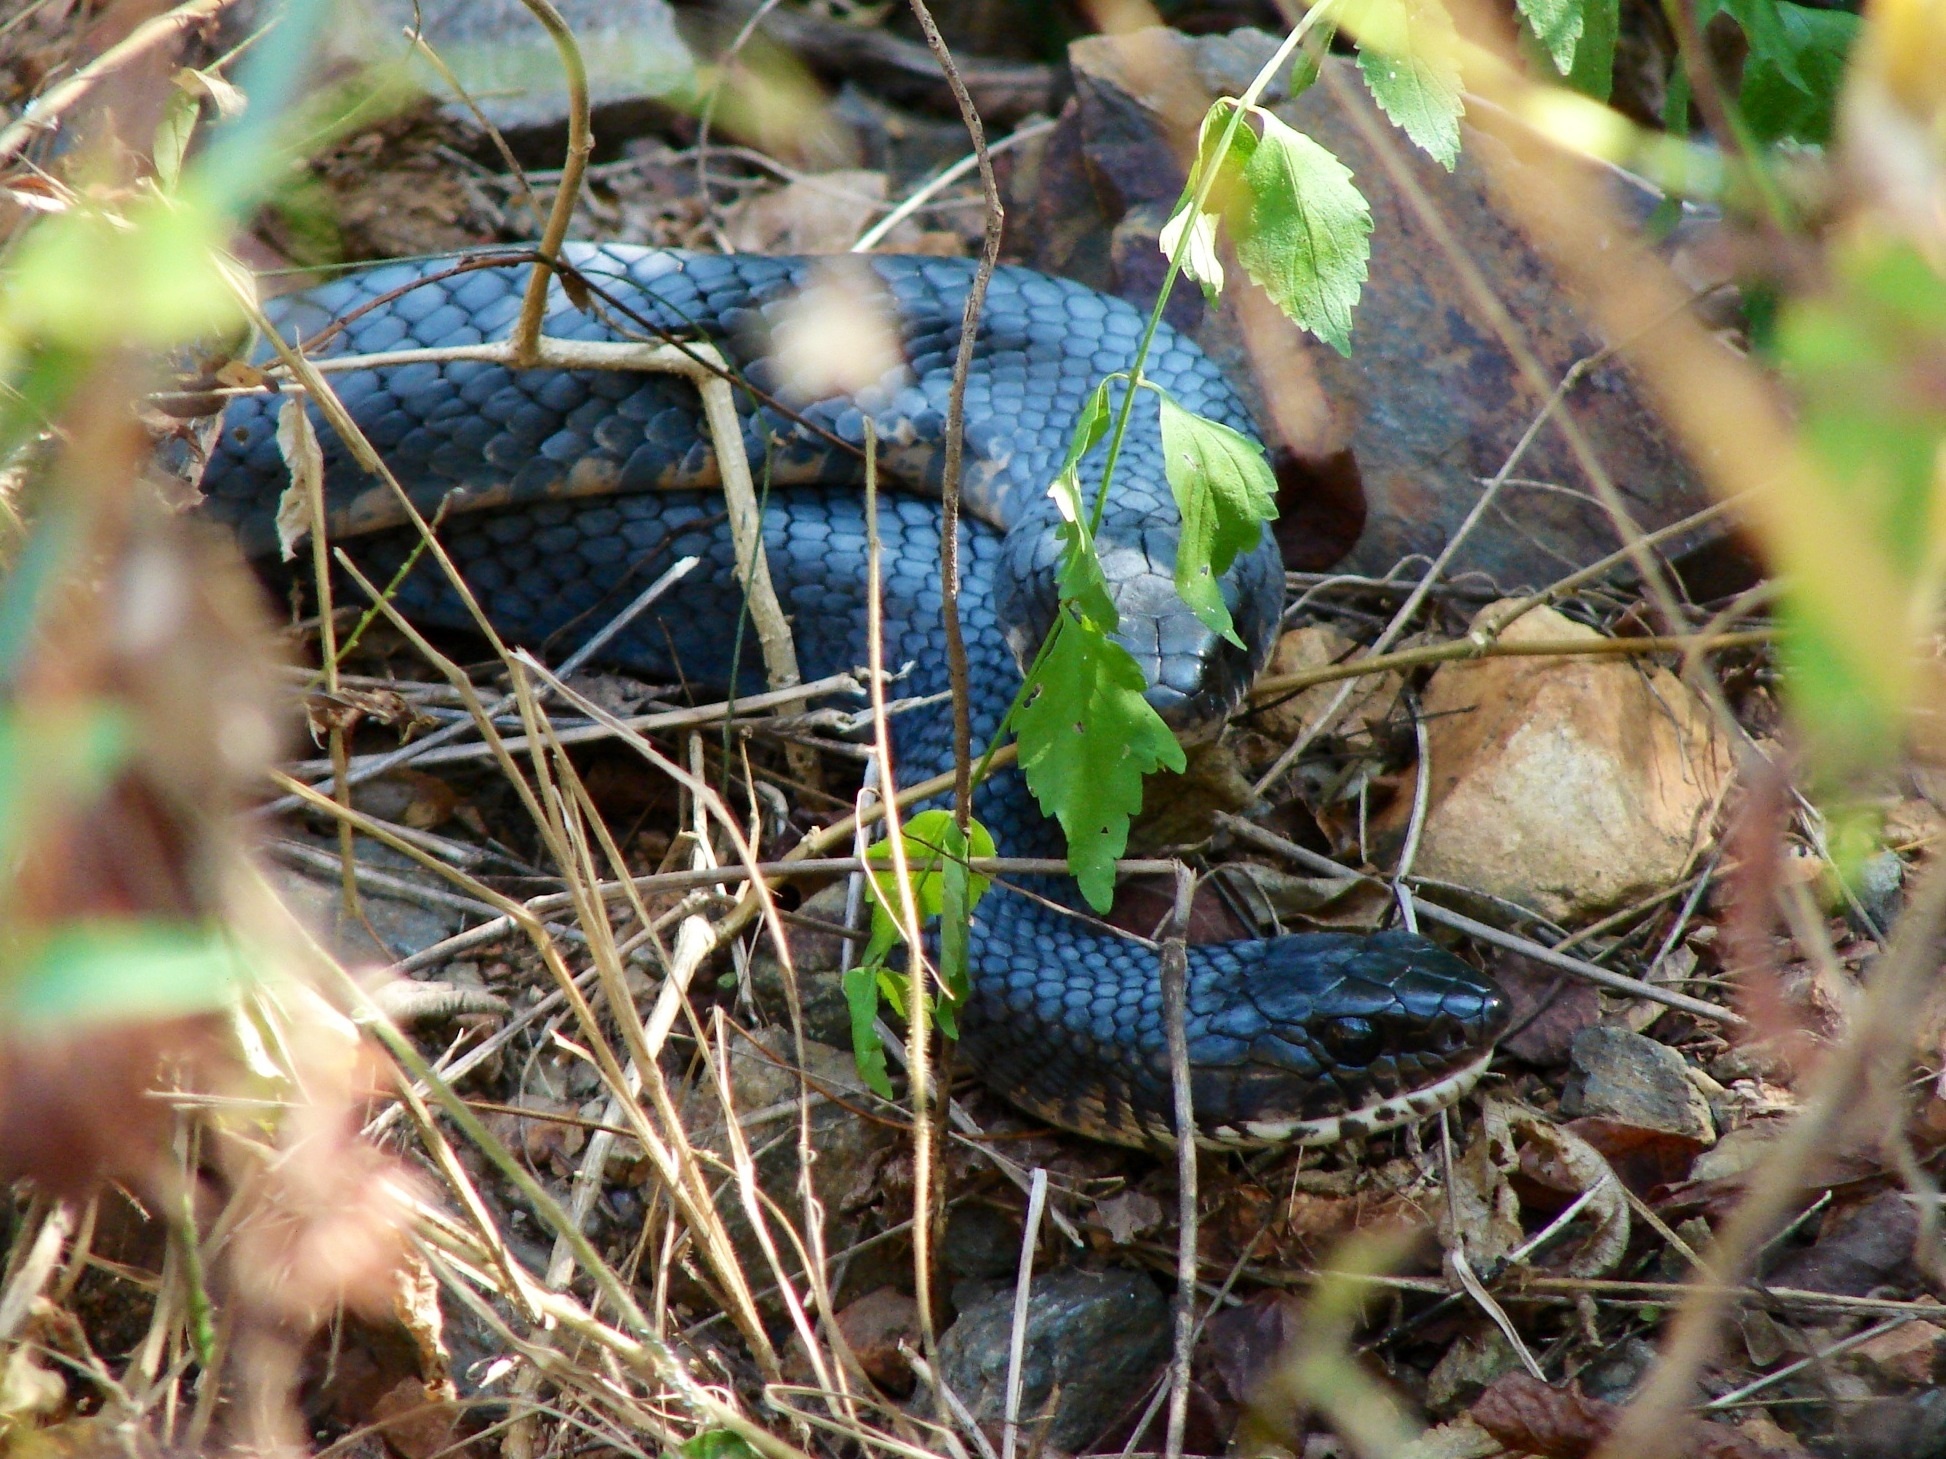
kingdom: Animalia
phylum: Chordata
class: Squamata
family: Colubridae
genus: Drymarchon
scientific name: Drymarchon melanurus
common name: Central american indigo snake
